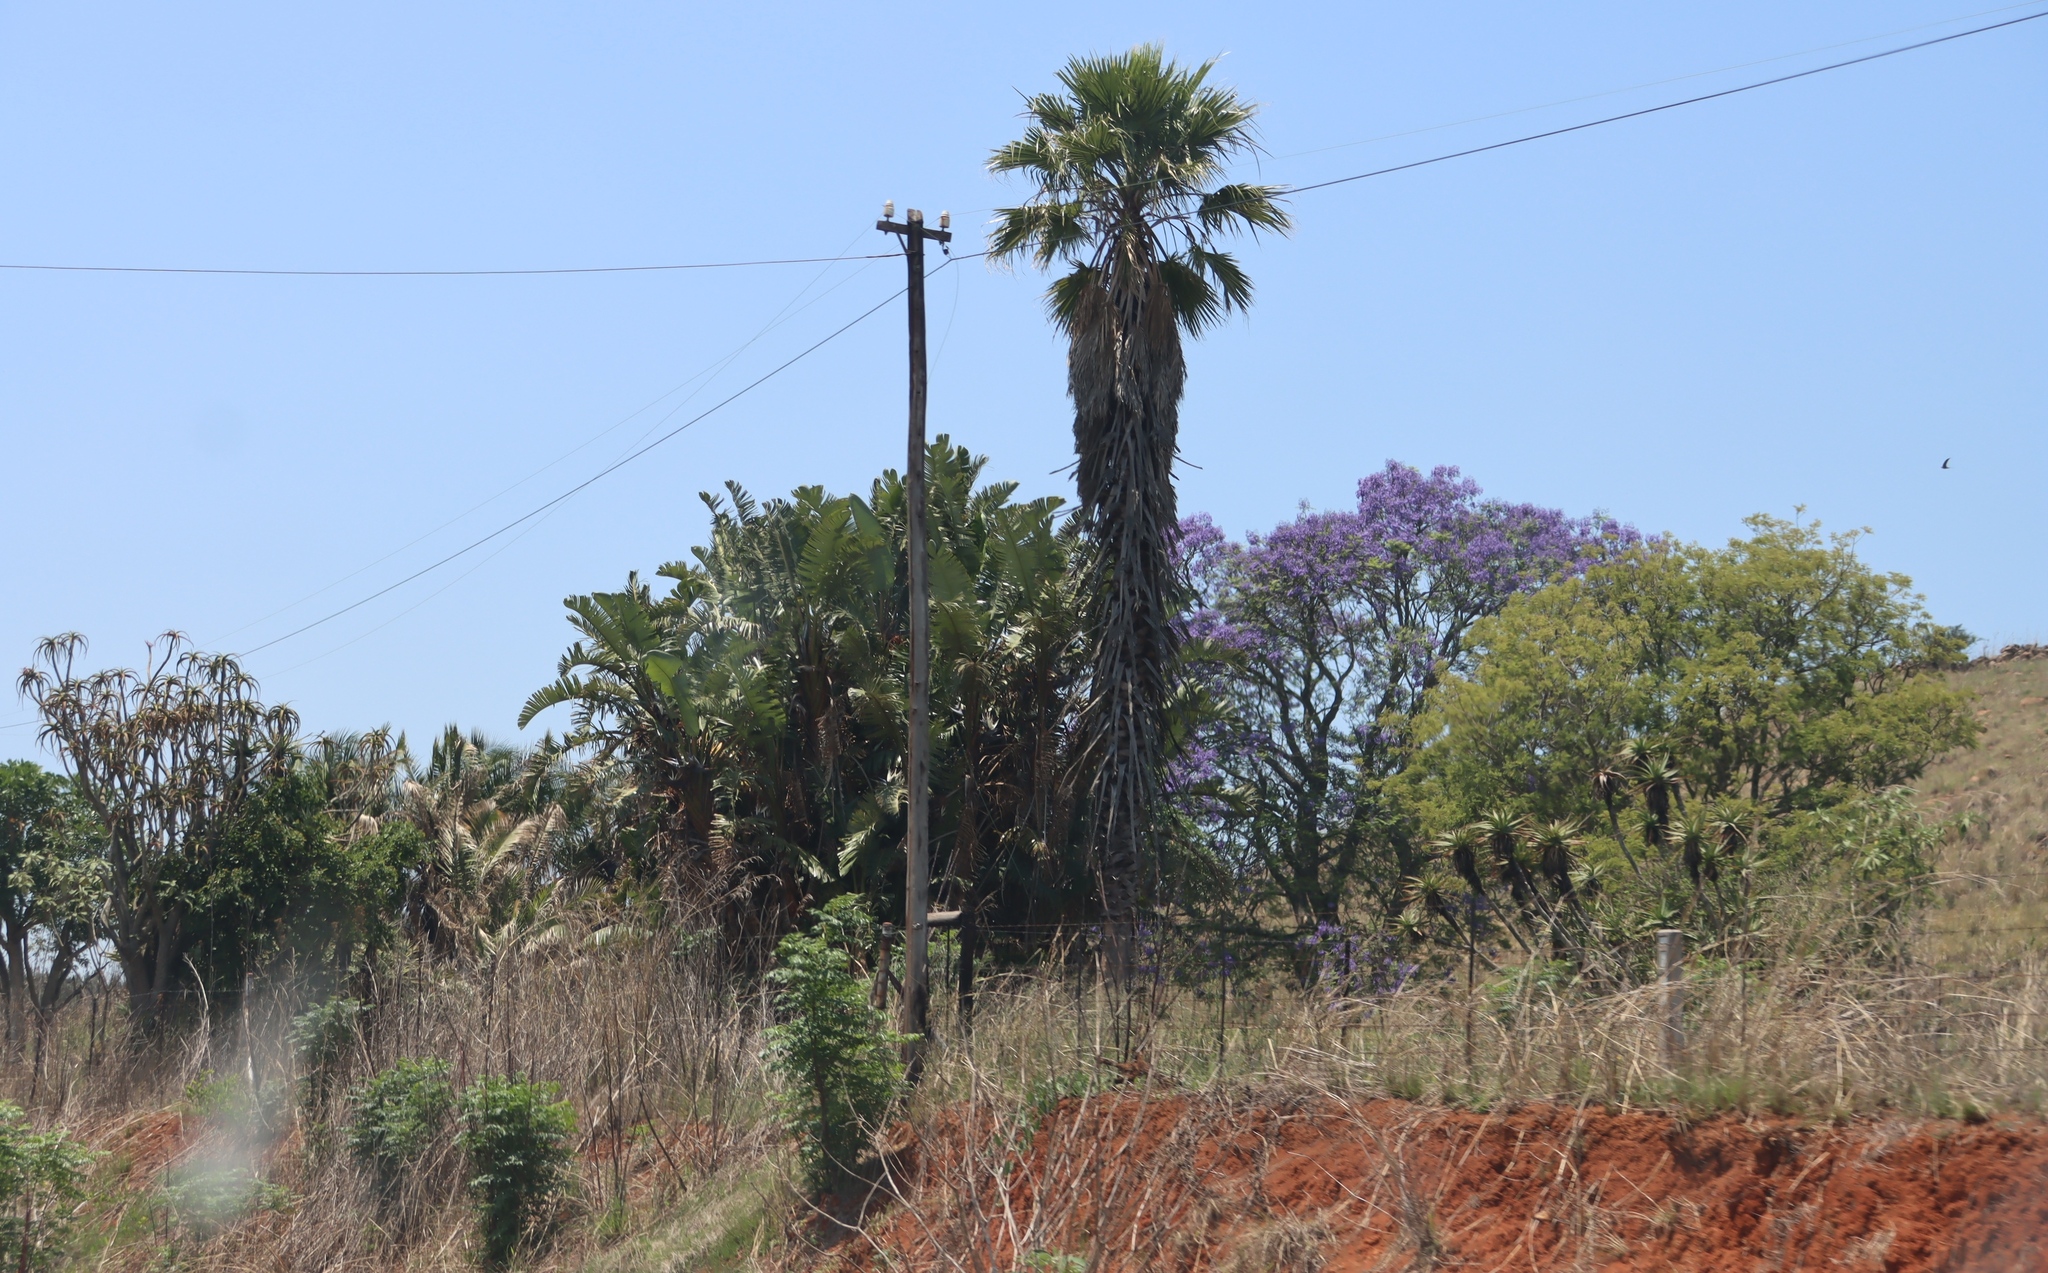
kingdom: Plantae
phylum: Tracheophyta
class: Liliopsida
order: Arecales
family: Arecaceae
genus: Washingtonia
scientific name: Washingtonia robusta
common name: Mexican fan palm
